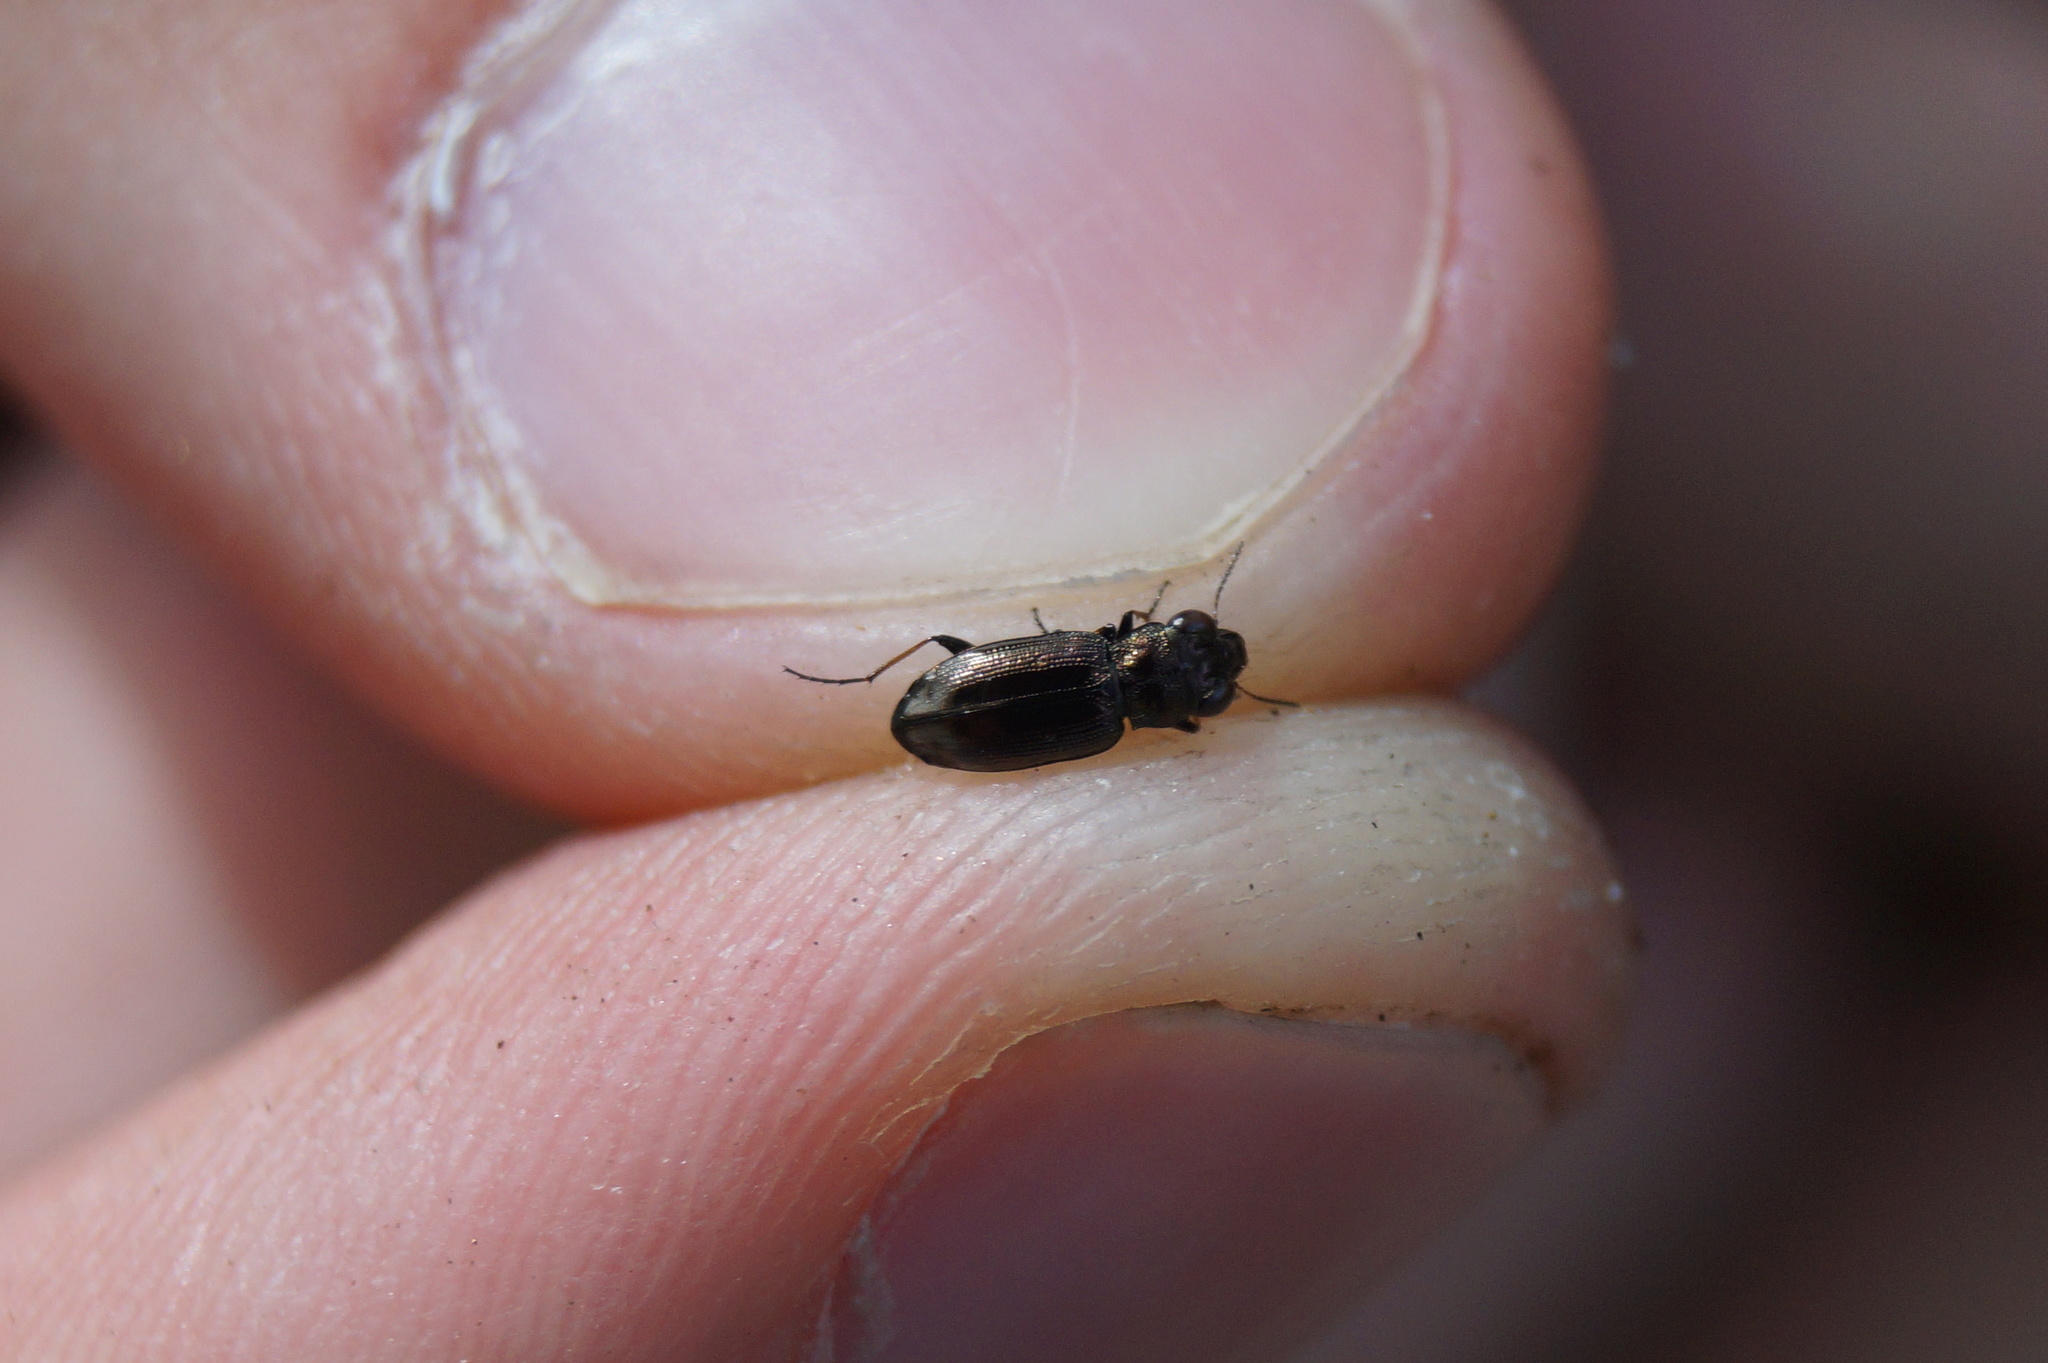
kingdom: Animalia
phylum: Arthropoda
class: Insecta
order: Coleoptera
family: Carabidae
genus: Notiophilus
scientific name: Notiophilus biguttatus
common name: Spotted gazelle beetle
